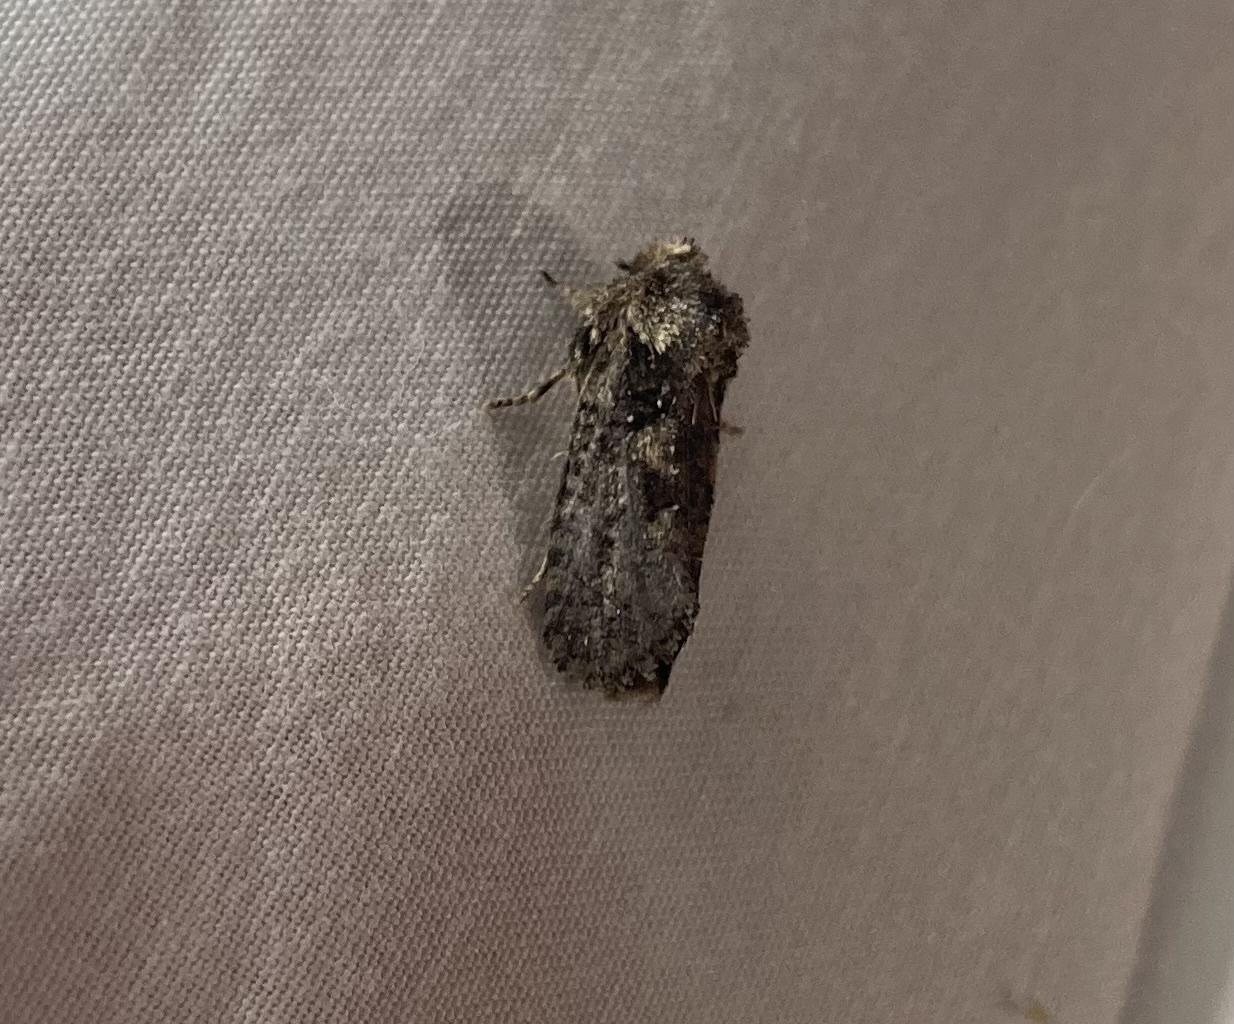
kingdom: Animalia
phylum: Arthropoda
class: Insecta
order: Lepidoptera
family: Tineidae
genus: Acrolophus
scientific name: Acrolophus arcanella
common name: Arcane grass tubeworm moth
